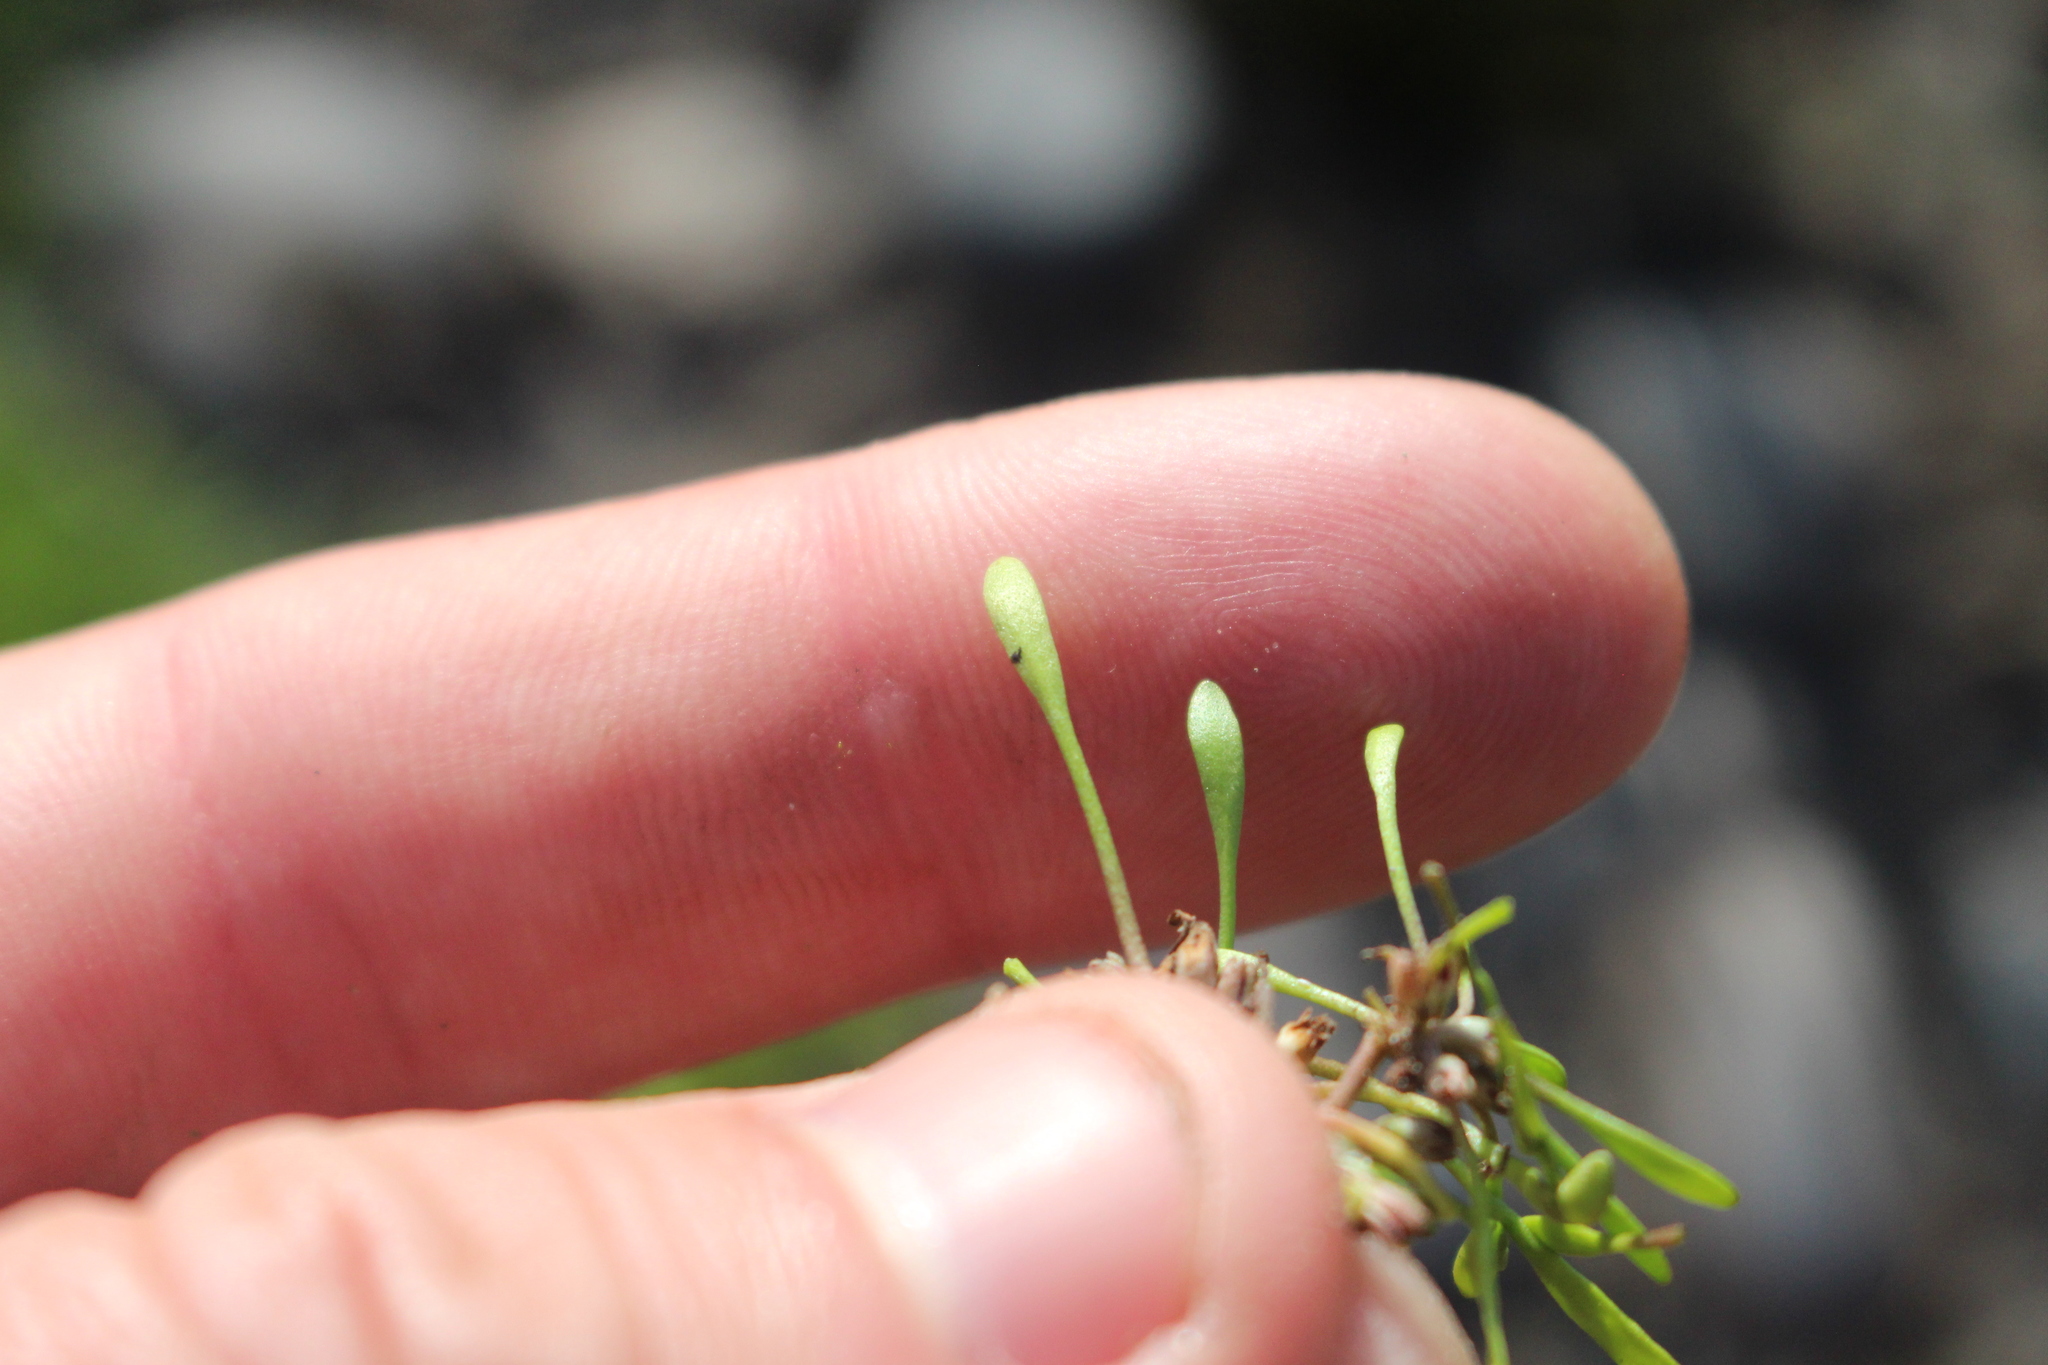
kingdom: Plantae
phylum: Tracheophyta
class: Magnoliopsida
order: Lamiales
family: Scrophulariaceae
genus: Limosella
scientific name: Limosella australis
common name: Welsh mudwort
